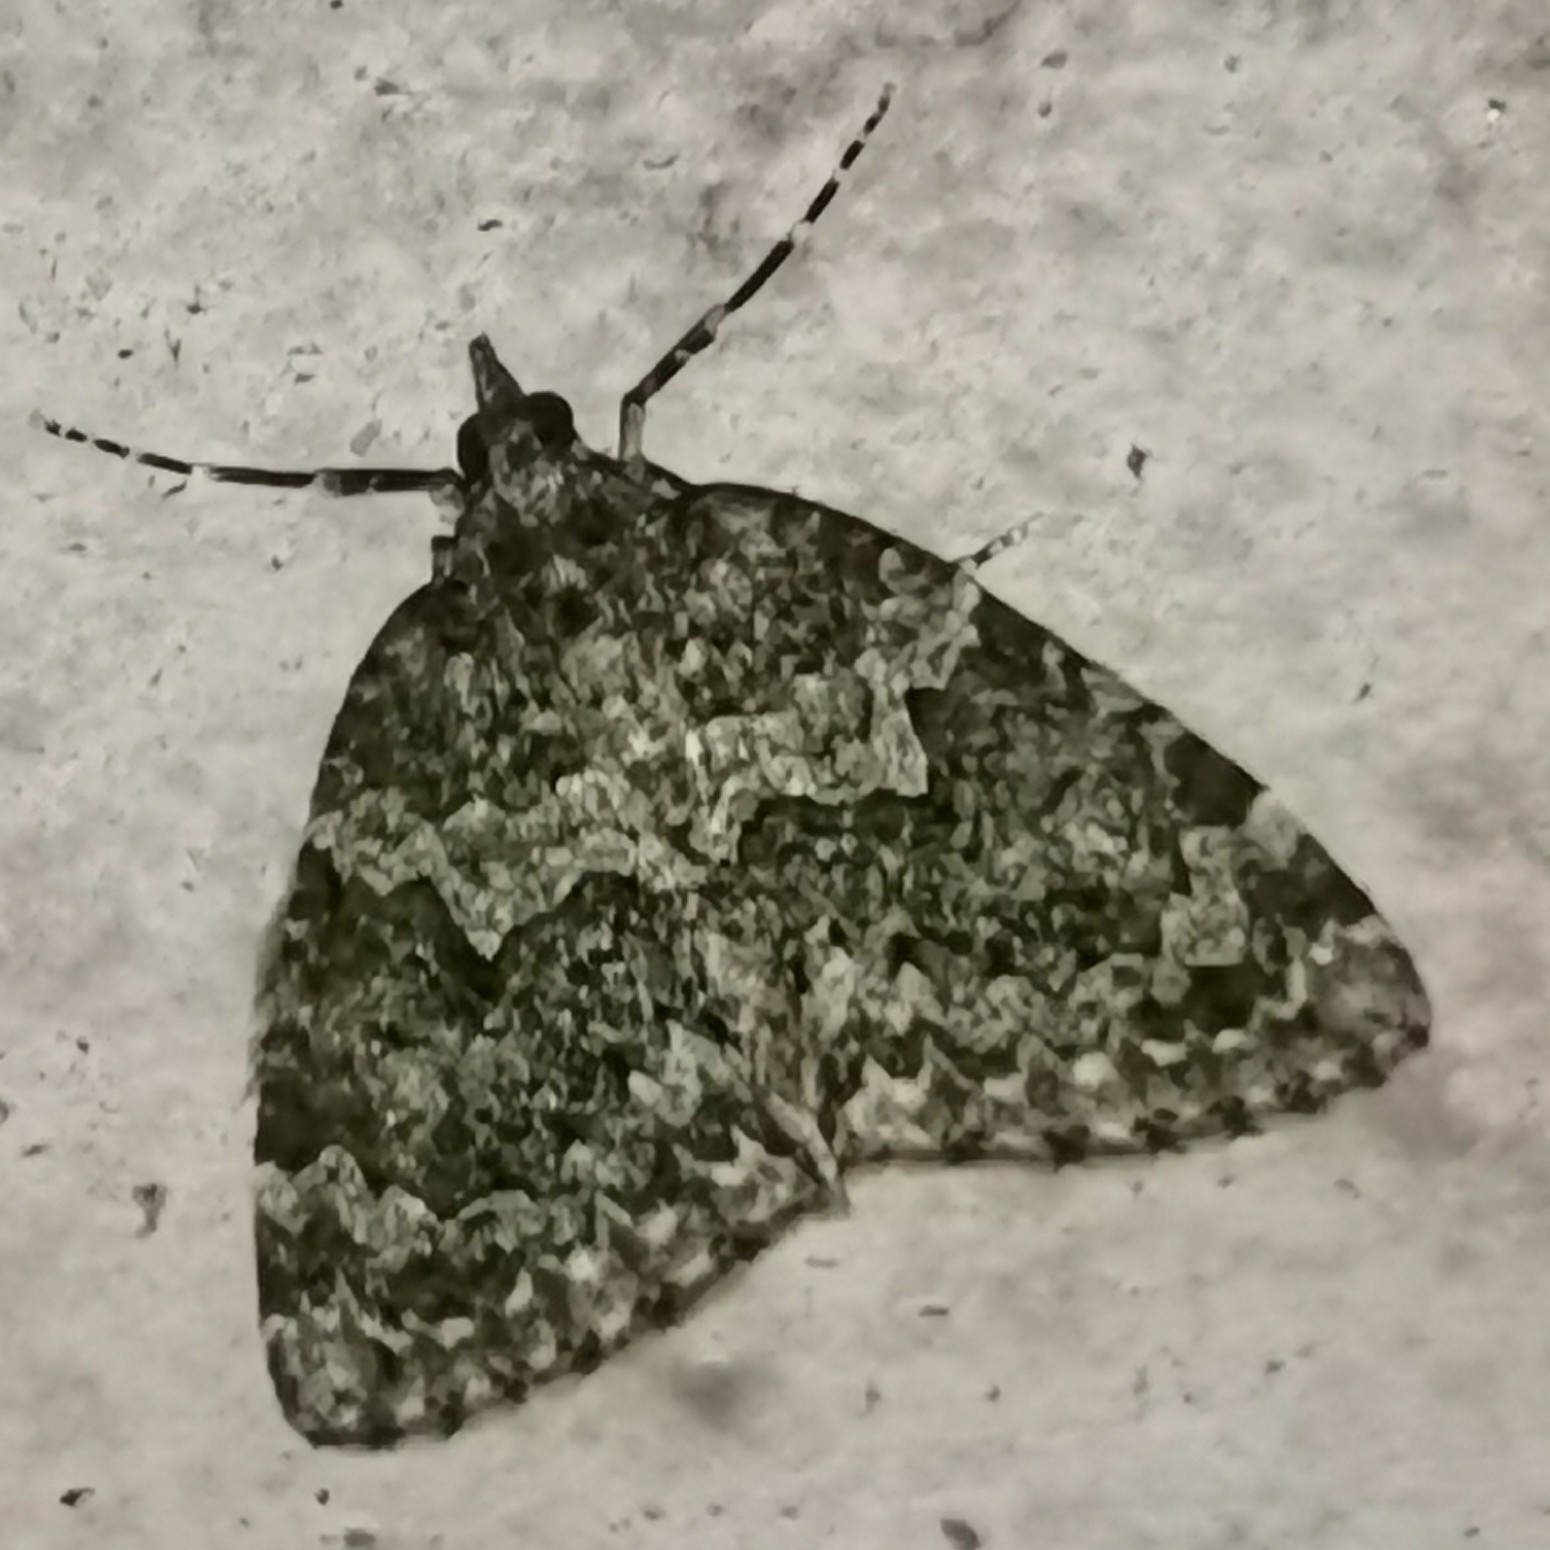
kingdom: Animalia
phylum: Arthropoda
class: Insecta
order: Lepidoptera
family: Geometridae
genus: Chloroclysta
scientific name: Chloroclysta miata
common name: Autumn green carpet
